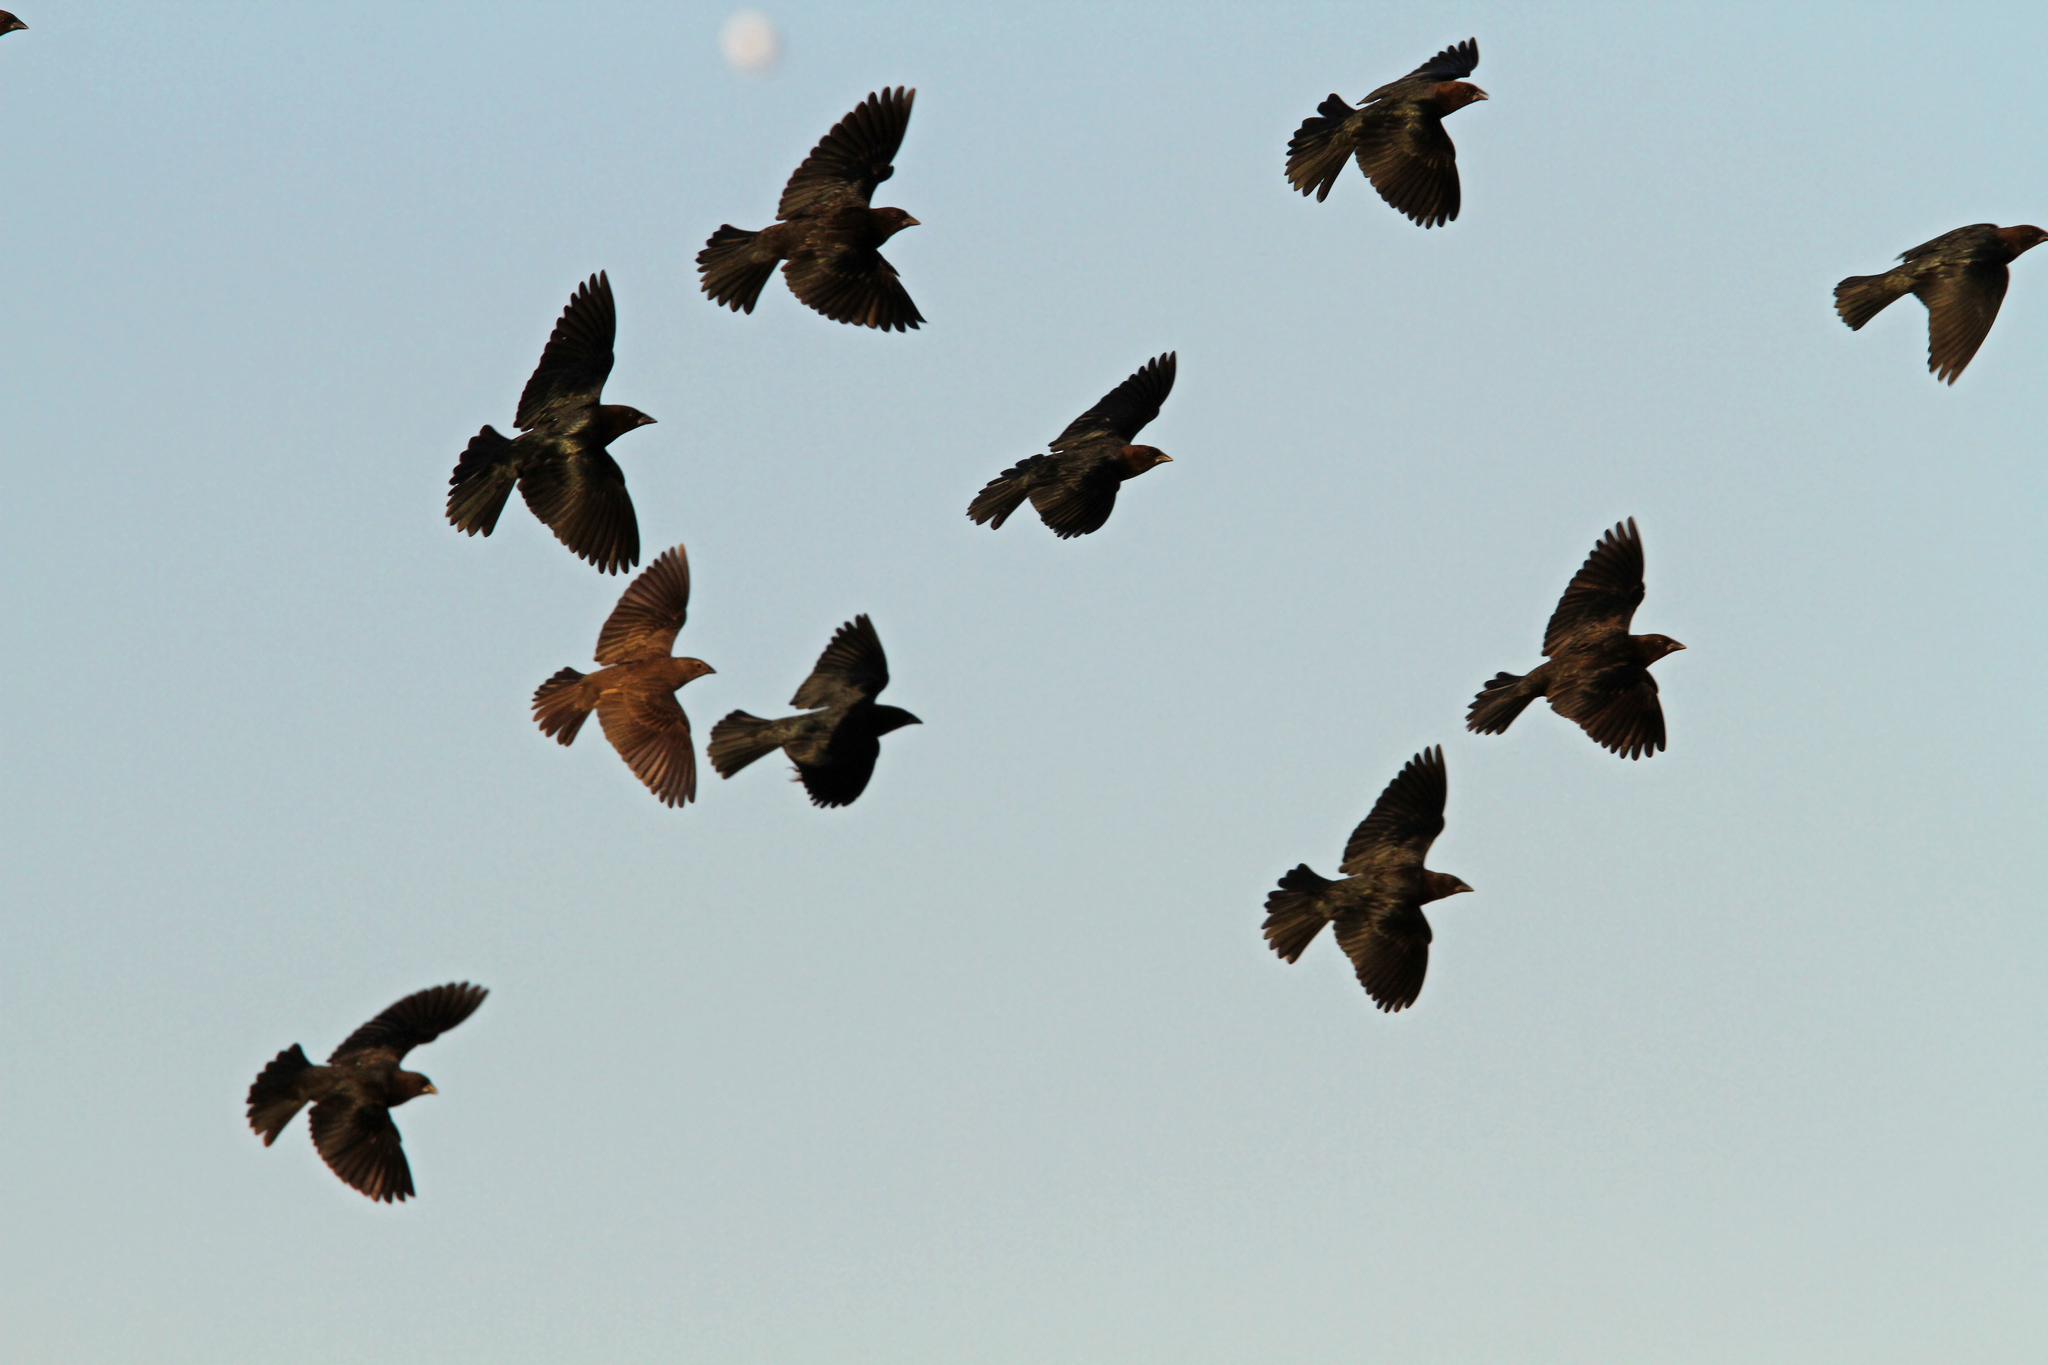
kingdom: Animalia
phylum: Chordata
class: Aves
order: Passeriformes
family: Icteridae
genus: Molothrus
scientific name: Molothrus ater
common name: Brown-headed cowbird
